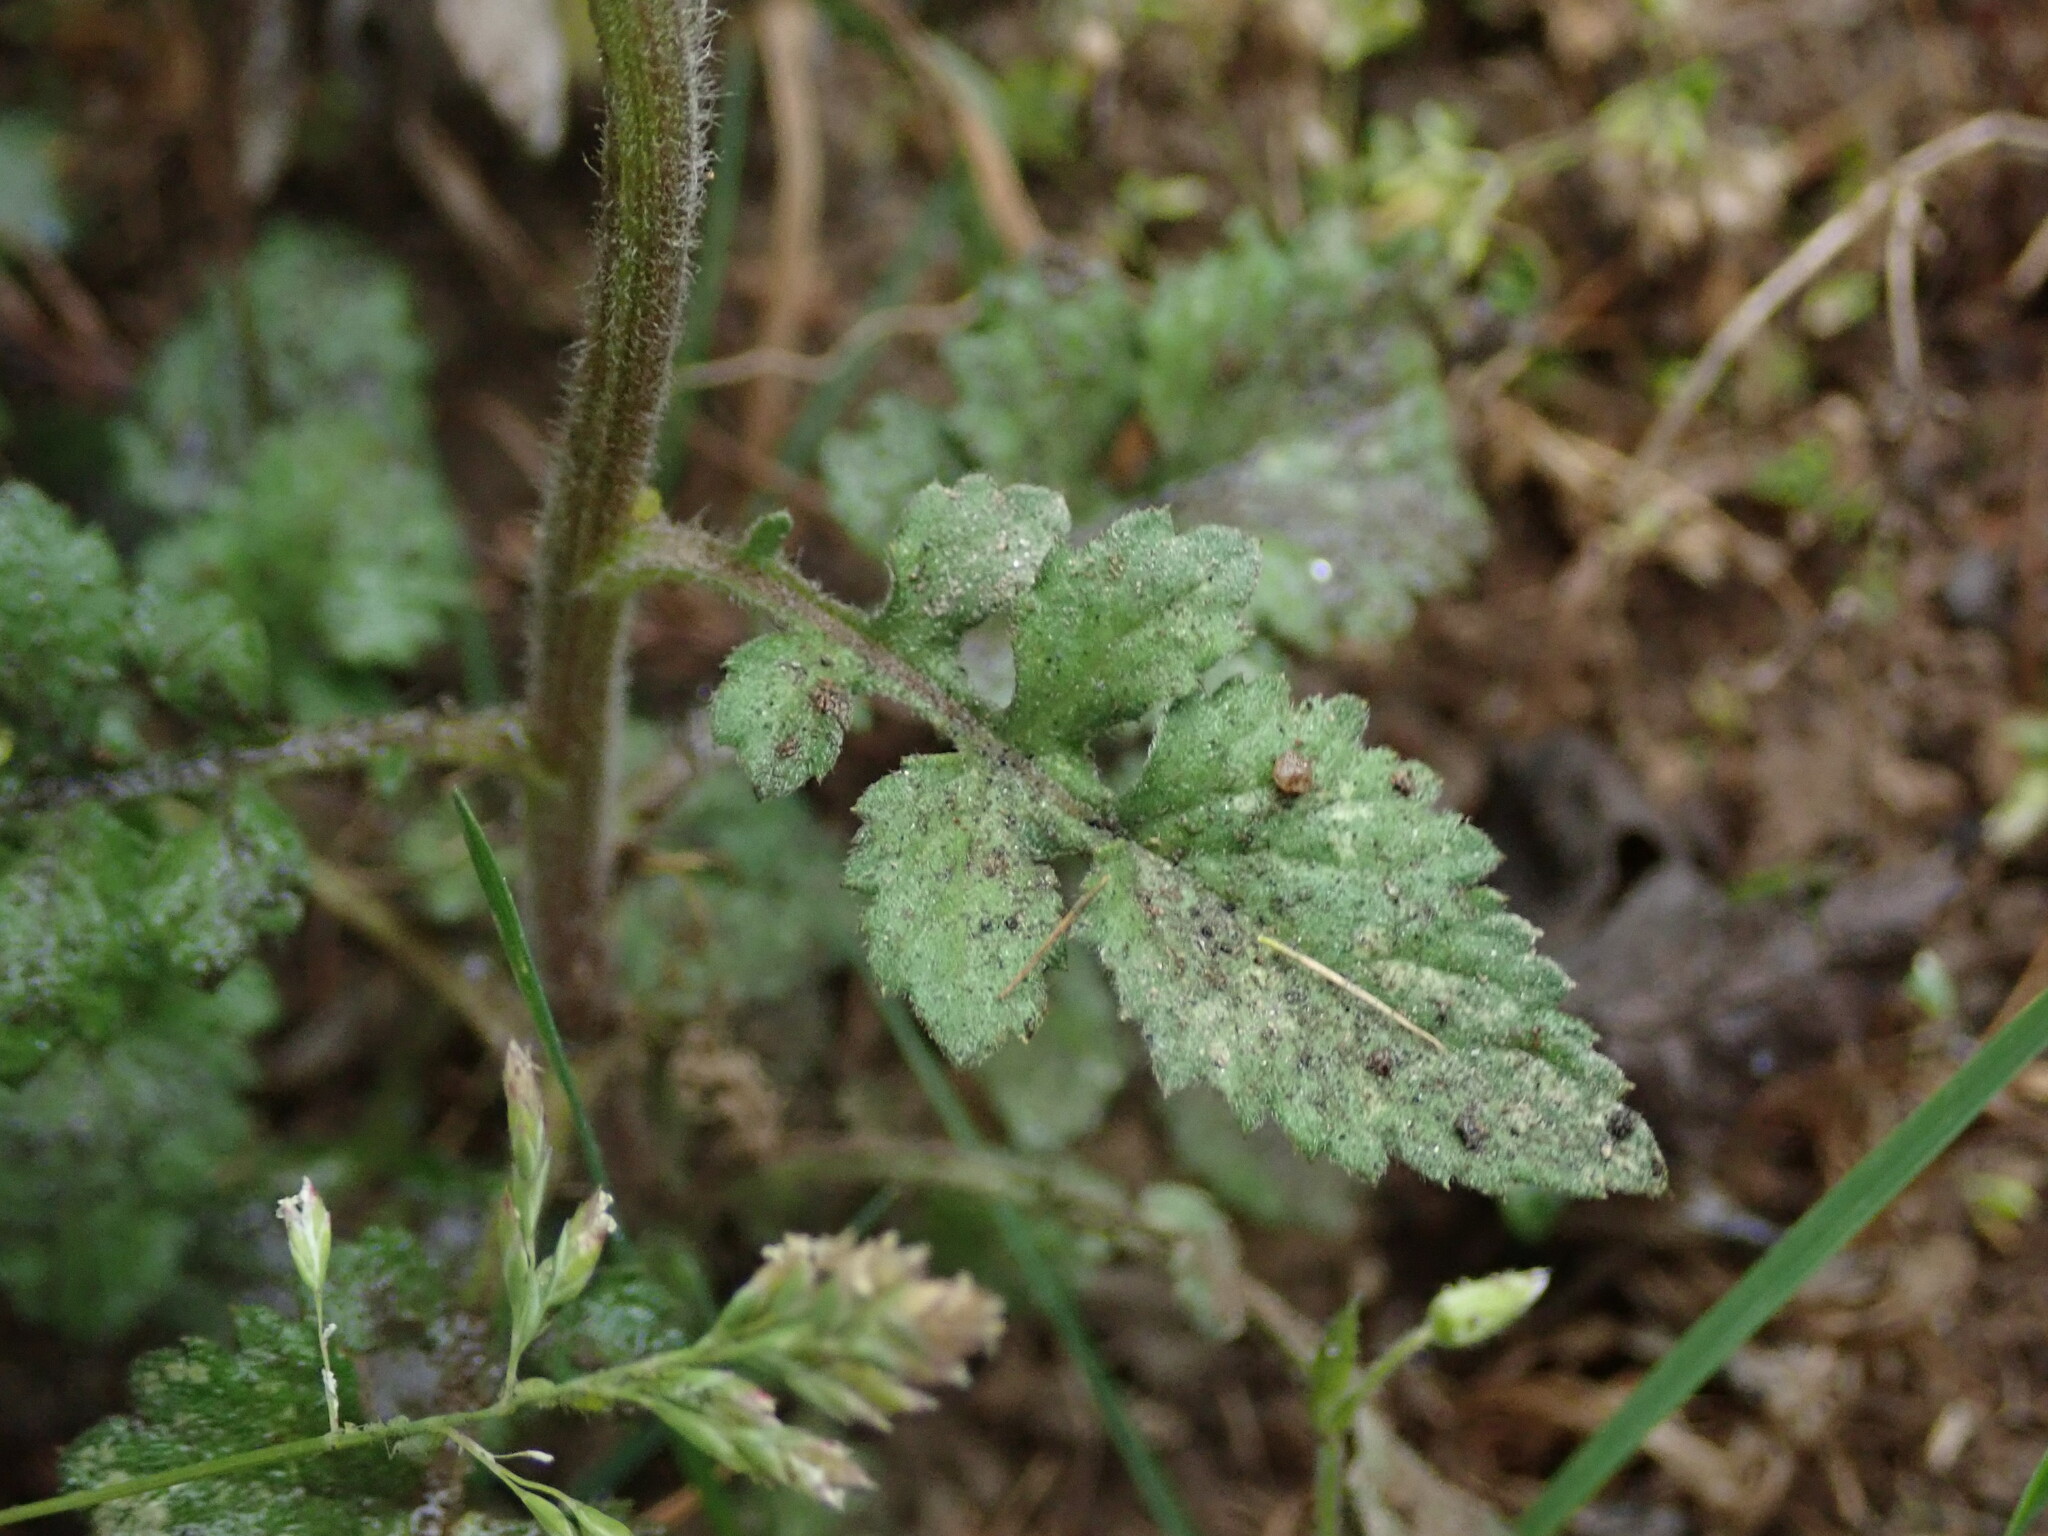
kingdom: Plantae
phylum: Tracheophyta
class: Magnoliopsida
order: Asterales
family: Asteraceae
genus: Dichrocephala
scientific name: Dichrocephala integrifolia
